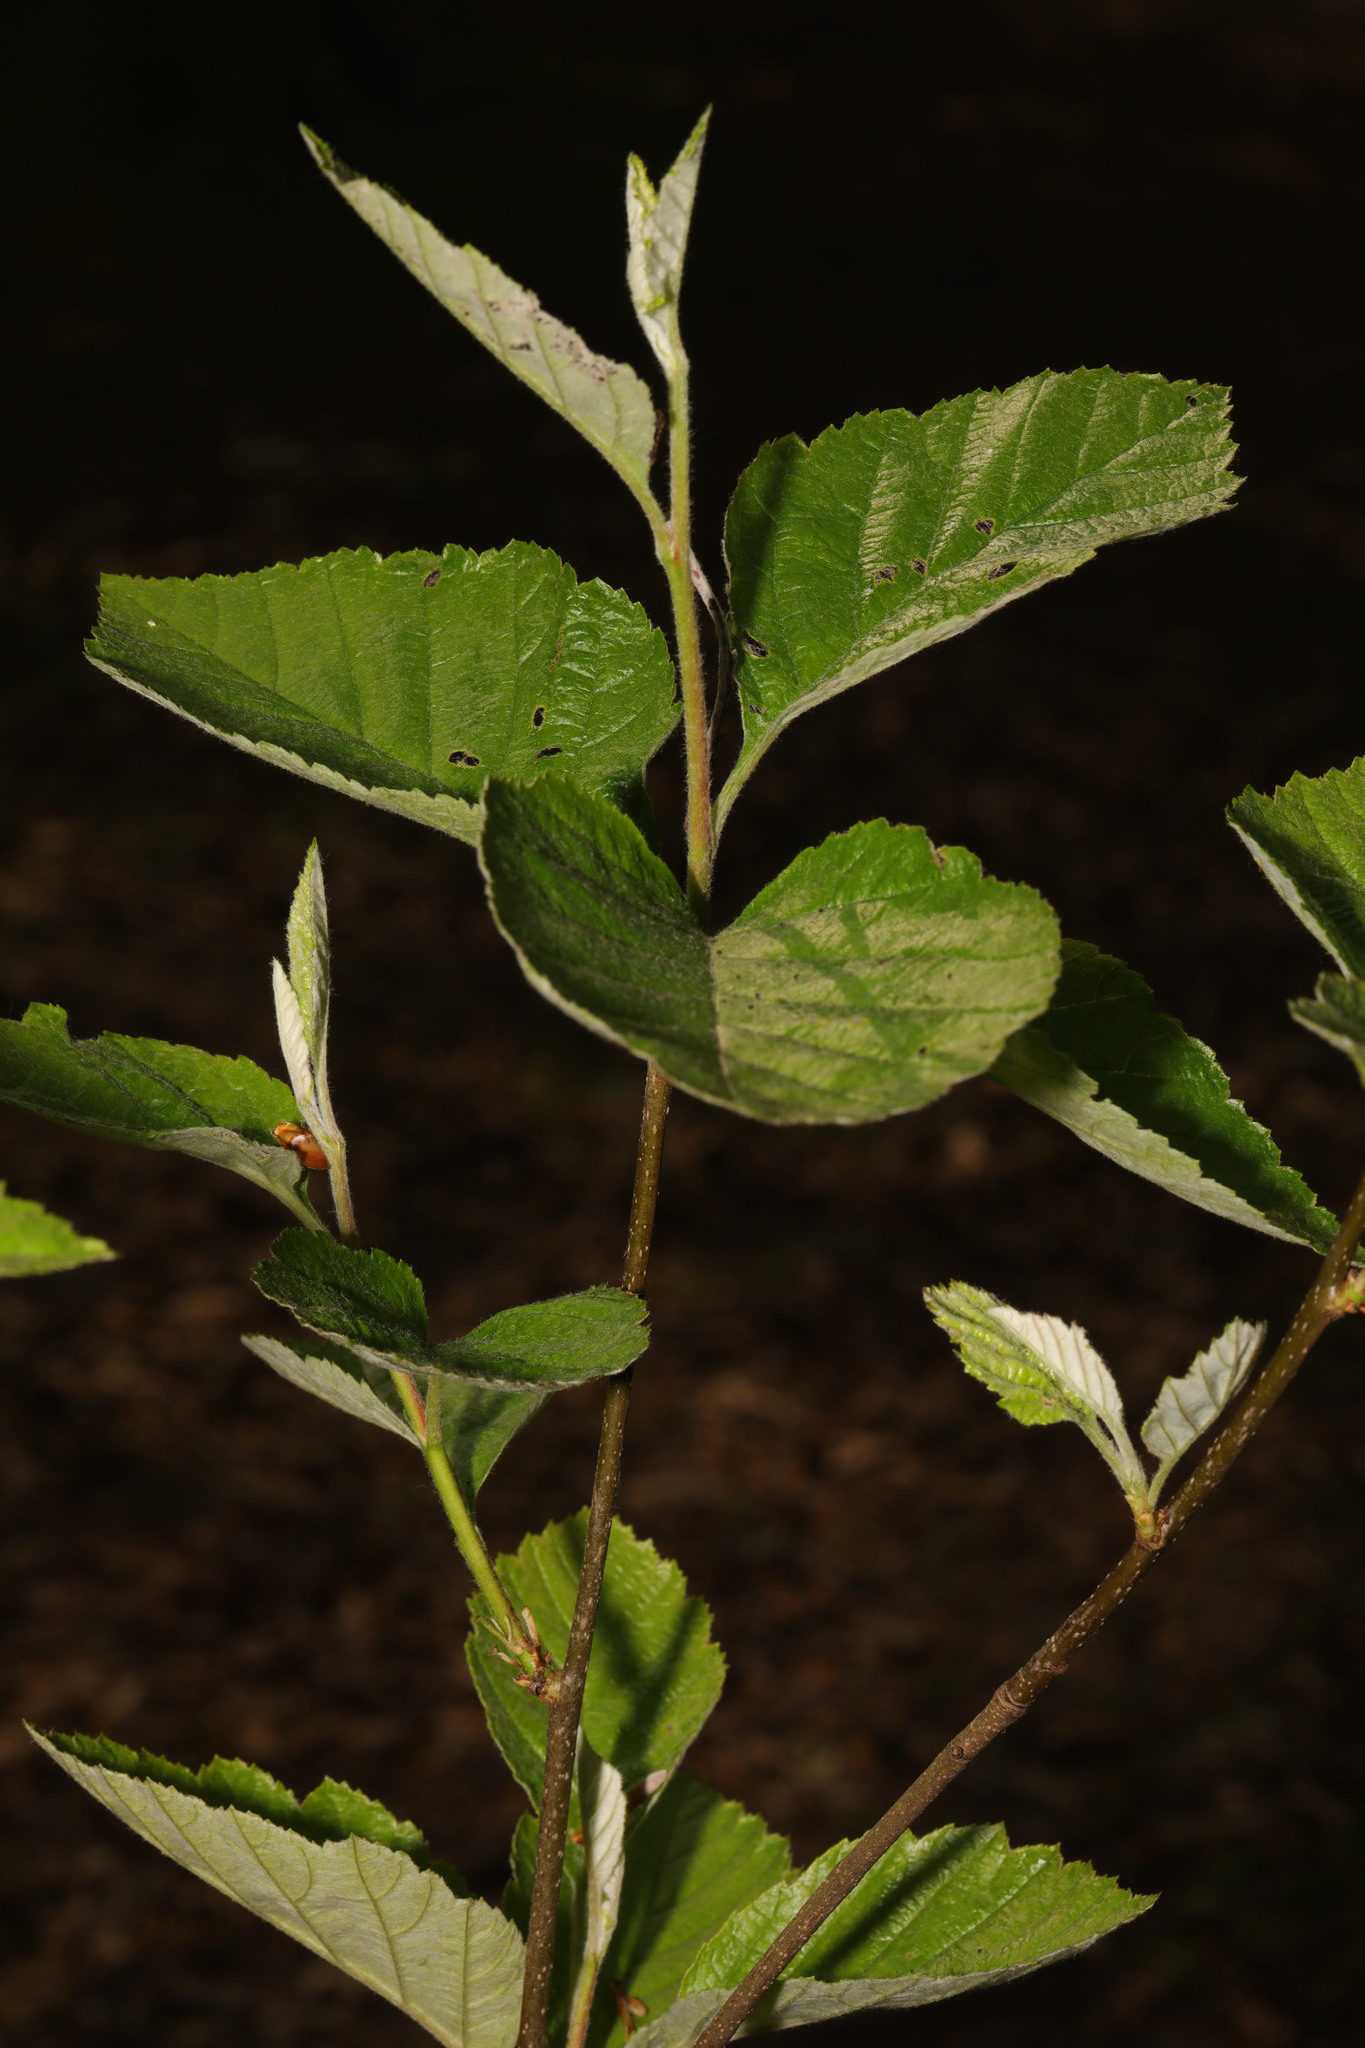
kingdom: Plantae
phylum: Tracheophyta
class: Magnoliopsida
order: Fagales
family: Betulaceae
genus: Betula
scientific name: Betula pubescens
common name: Downy birch
